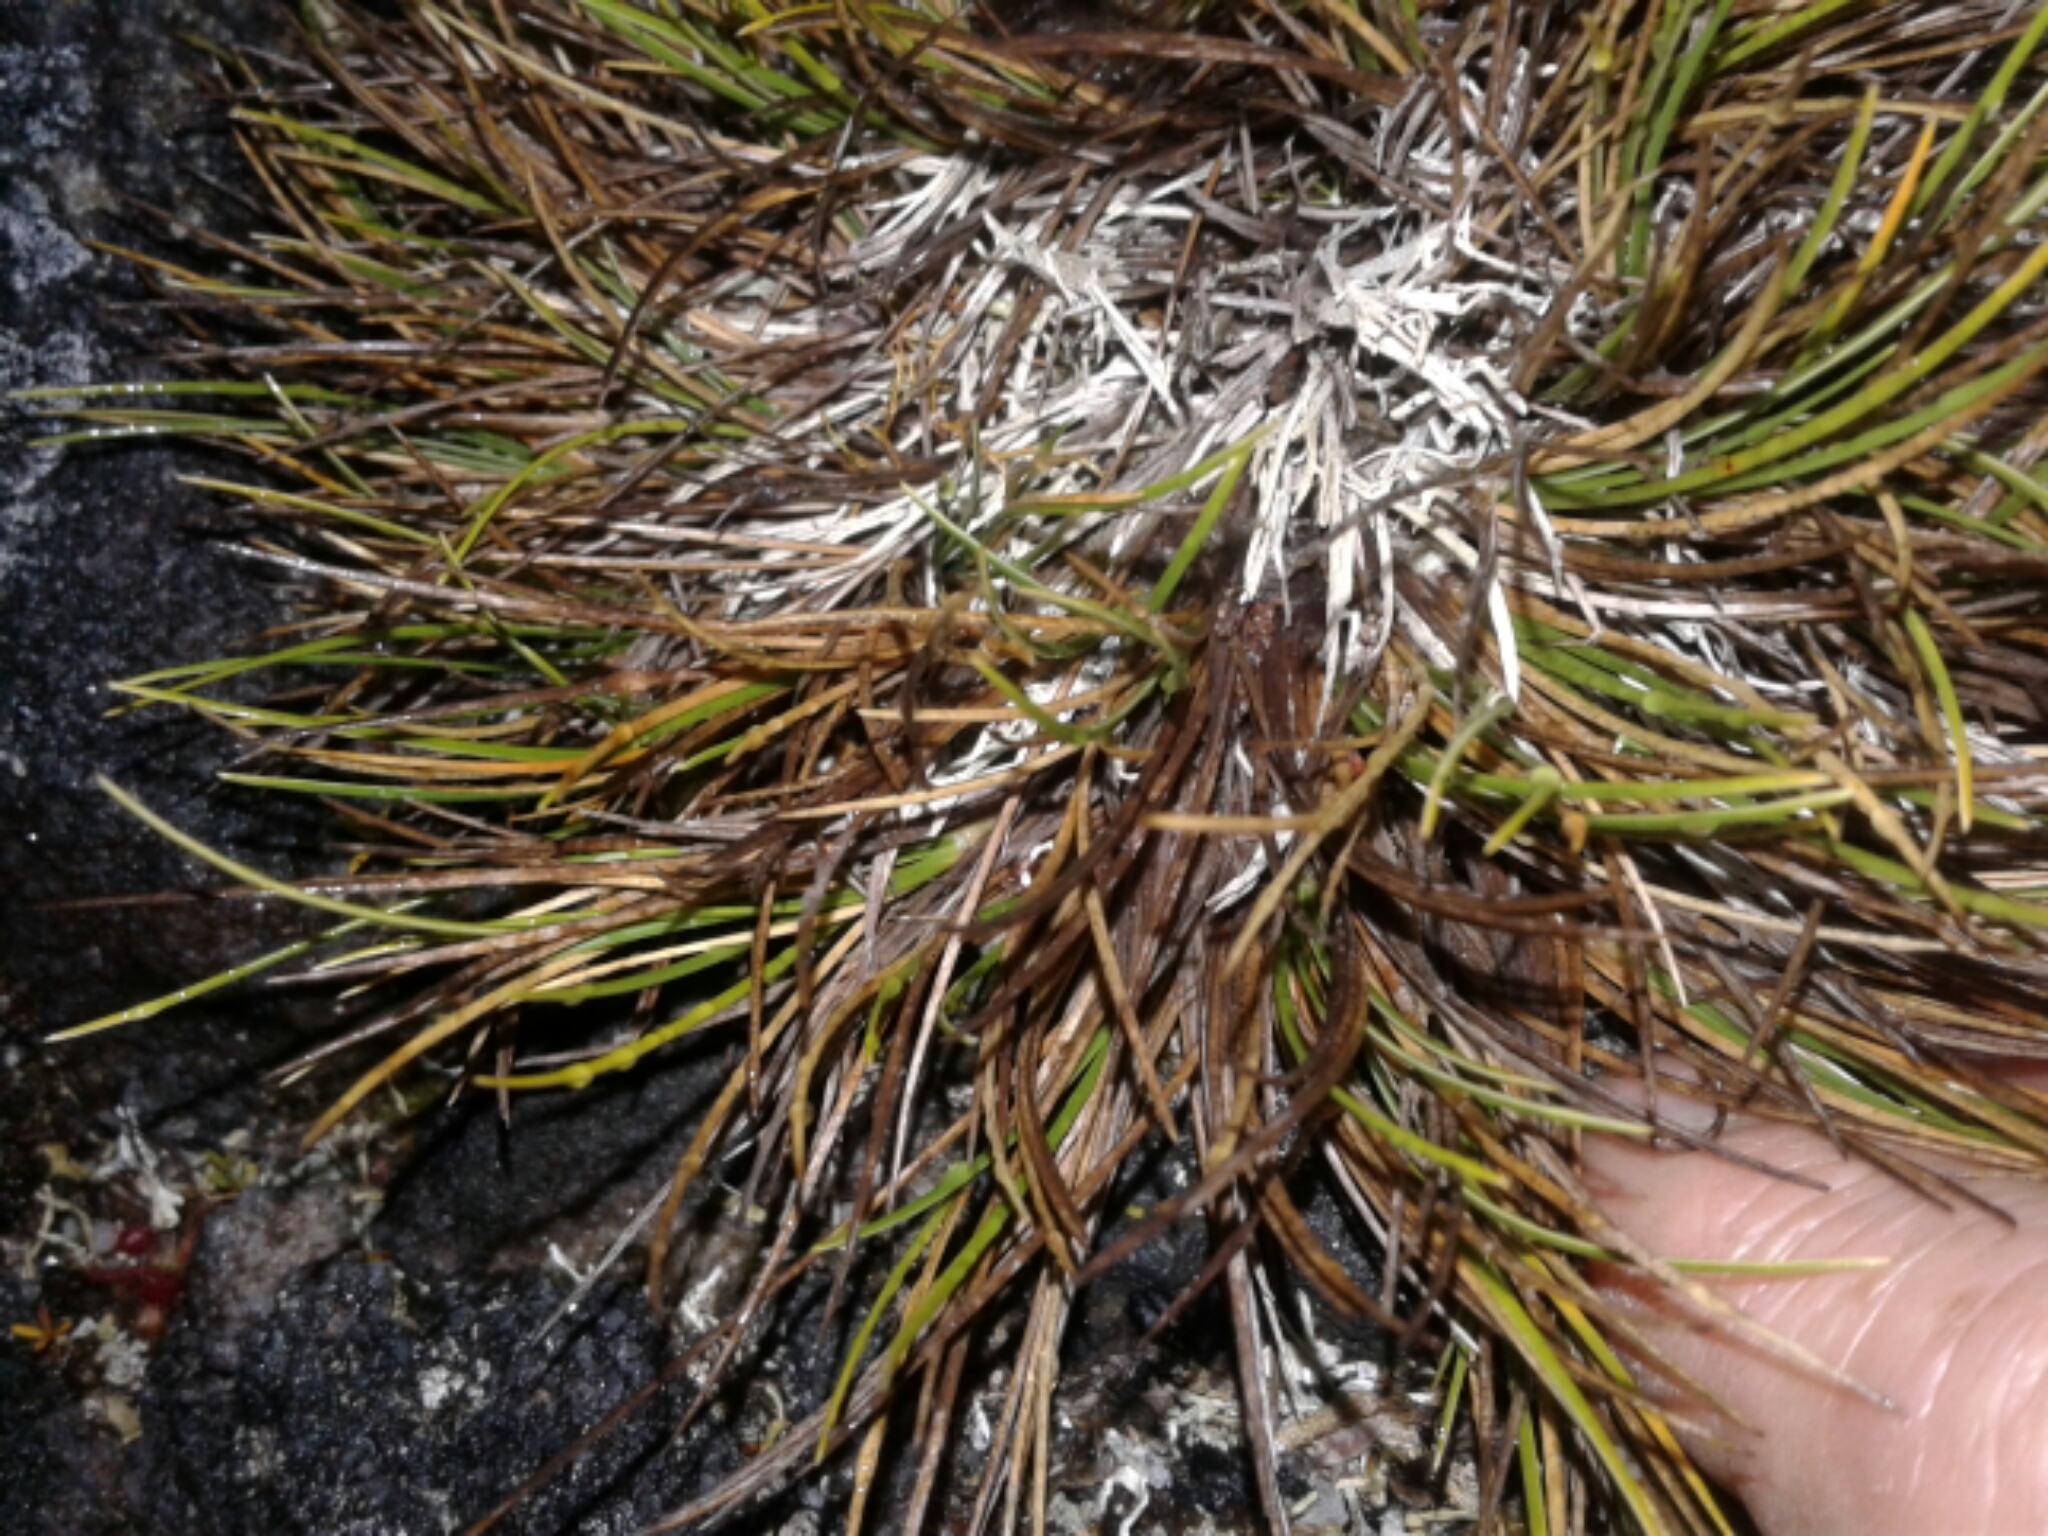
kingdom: Plantae
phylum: Tracheophyta
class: Liliopsida
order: Poales
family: Cyperaceae
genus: Oreobolus
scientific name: Oreobolus strictus
